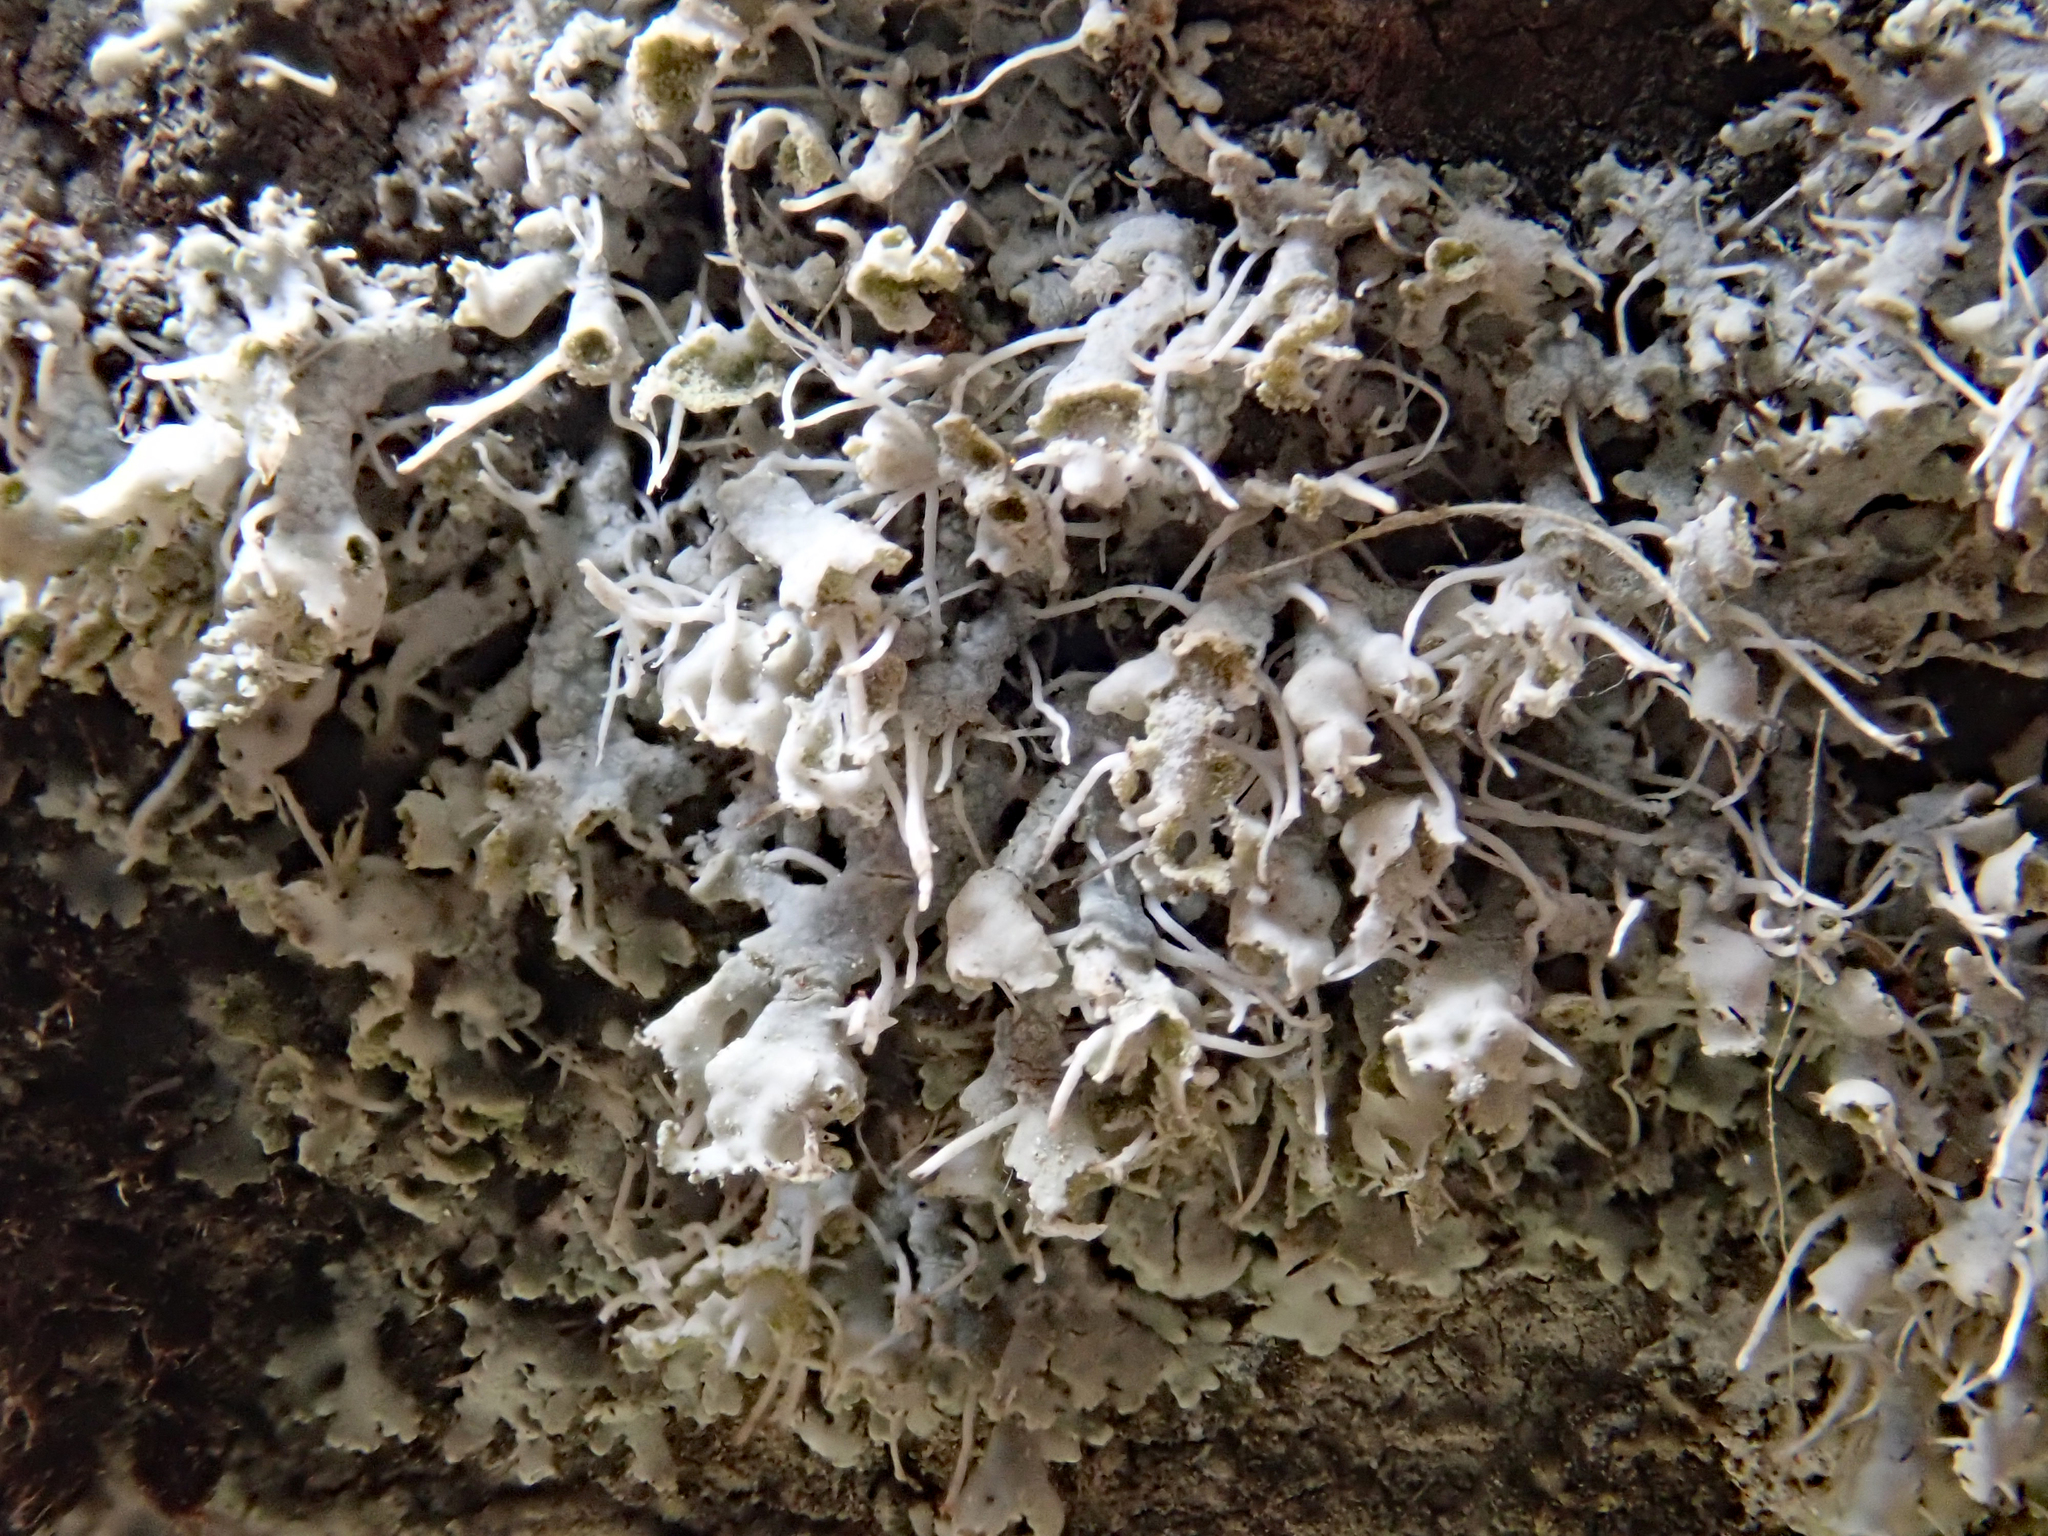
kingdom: Fungi
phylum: Ascomycota
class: Lecanoromycetes
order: Caliciales
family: Physciaceae
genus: Physcia
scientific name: Physcia adscendens
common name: Hooded rosette lichen
